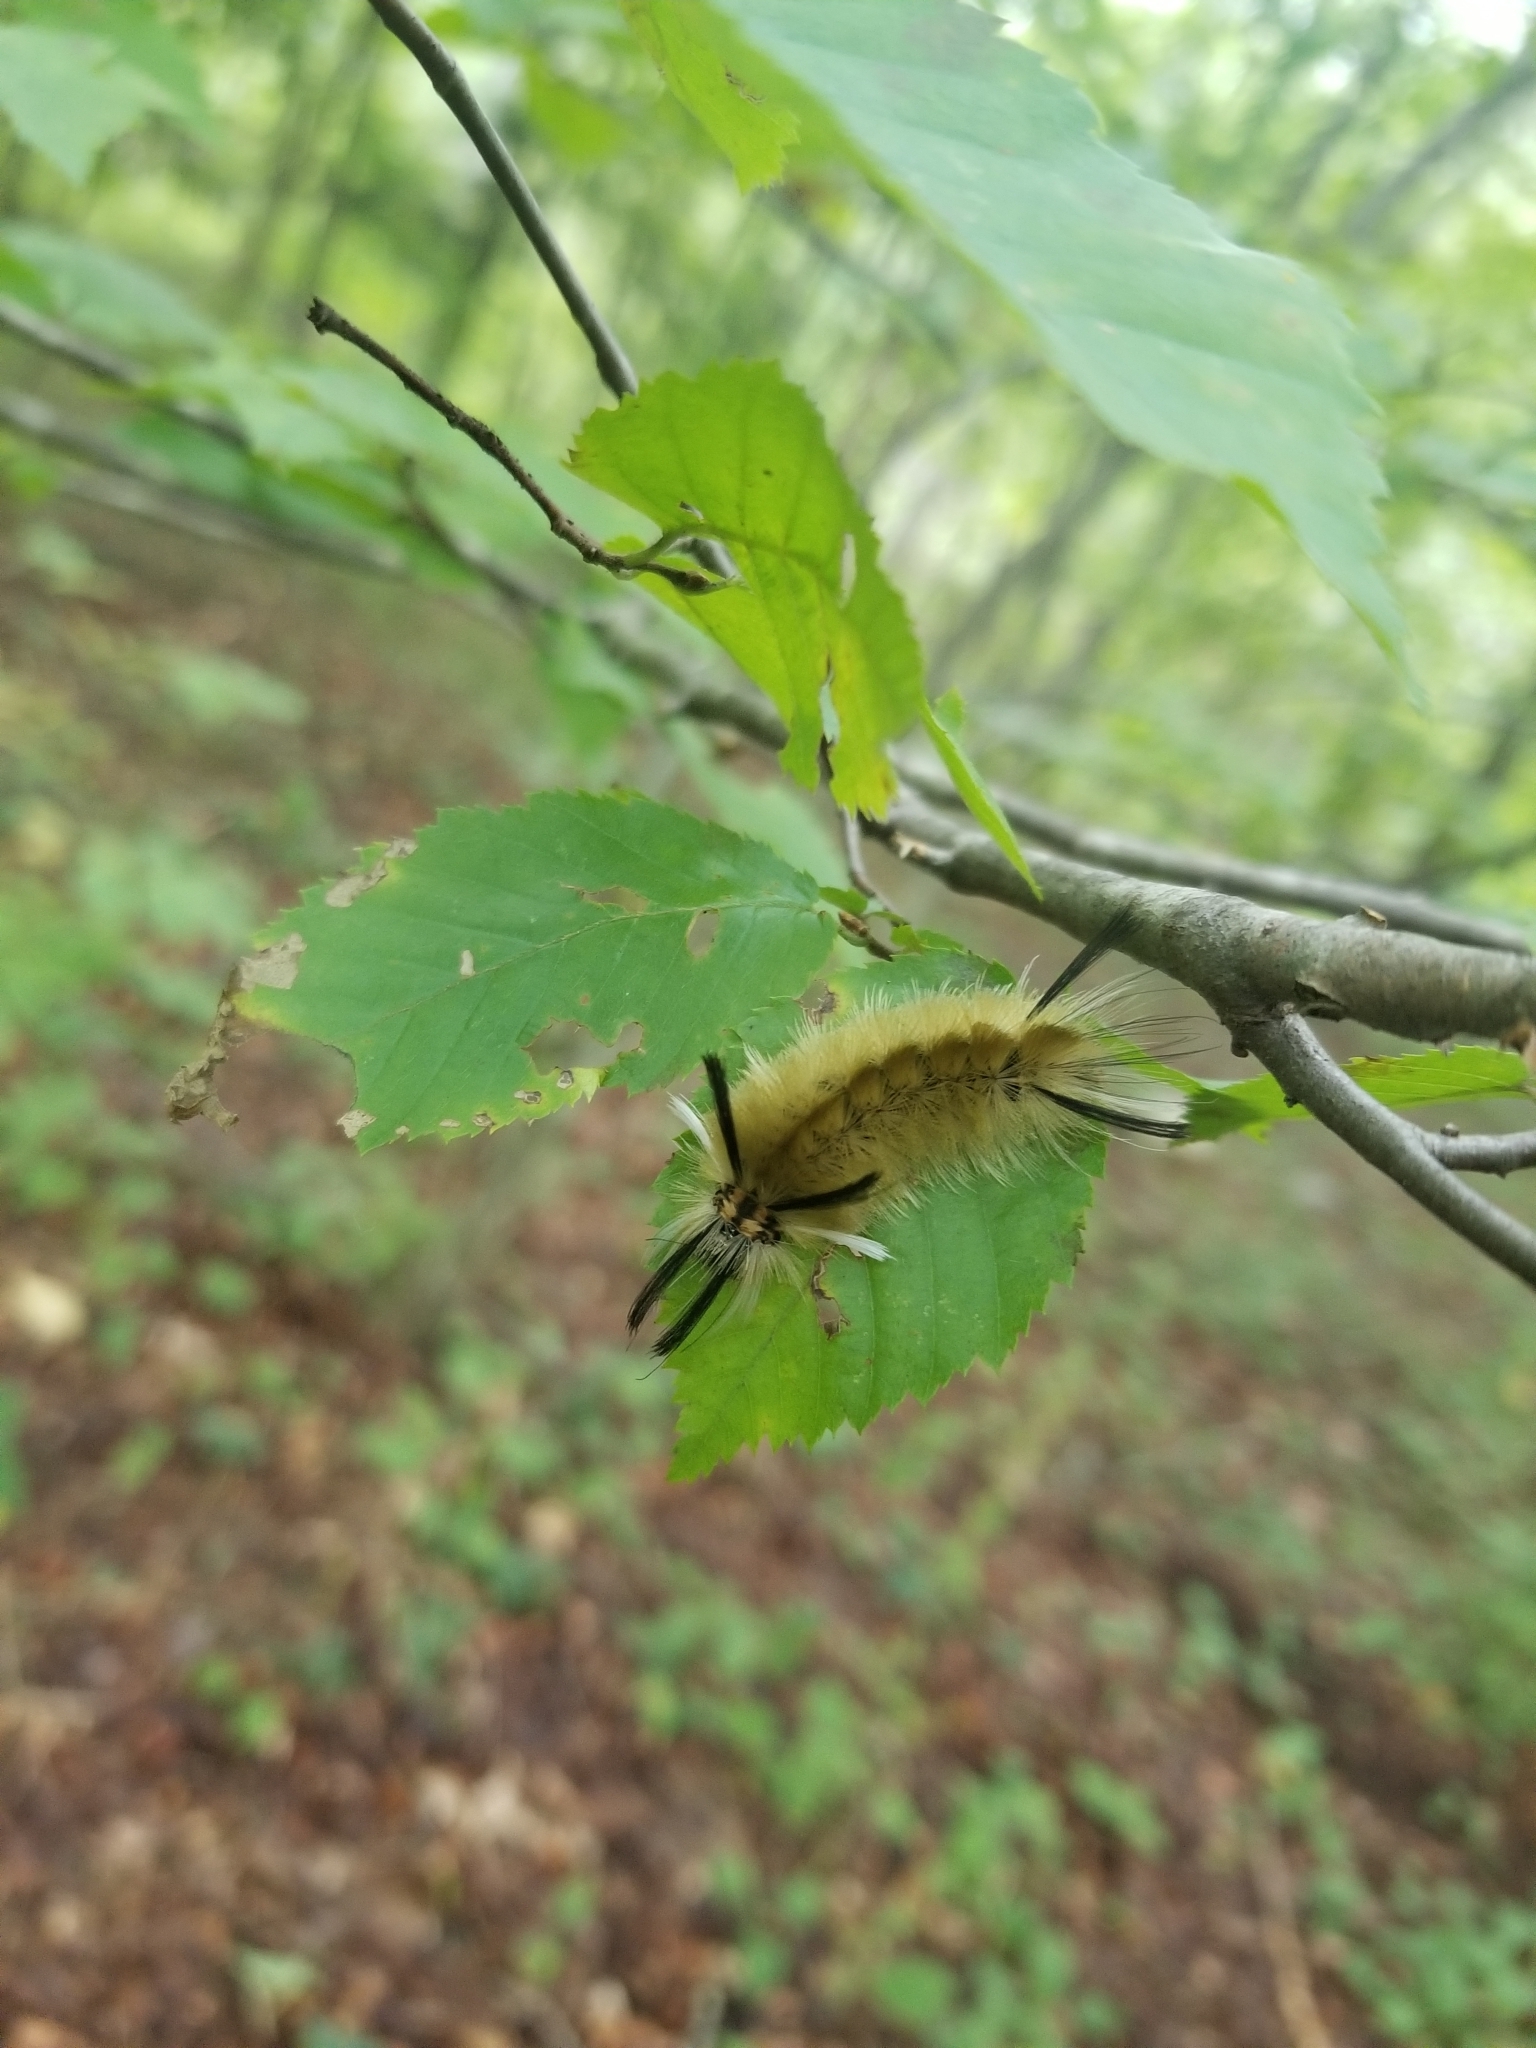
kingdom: Animalia
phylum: Arthropoda
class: Insecta
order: Lepidoptera
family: Erebidae
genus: Halysidota
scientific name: Halysidota tessellaris
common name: Banded tussock moth
